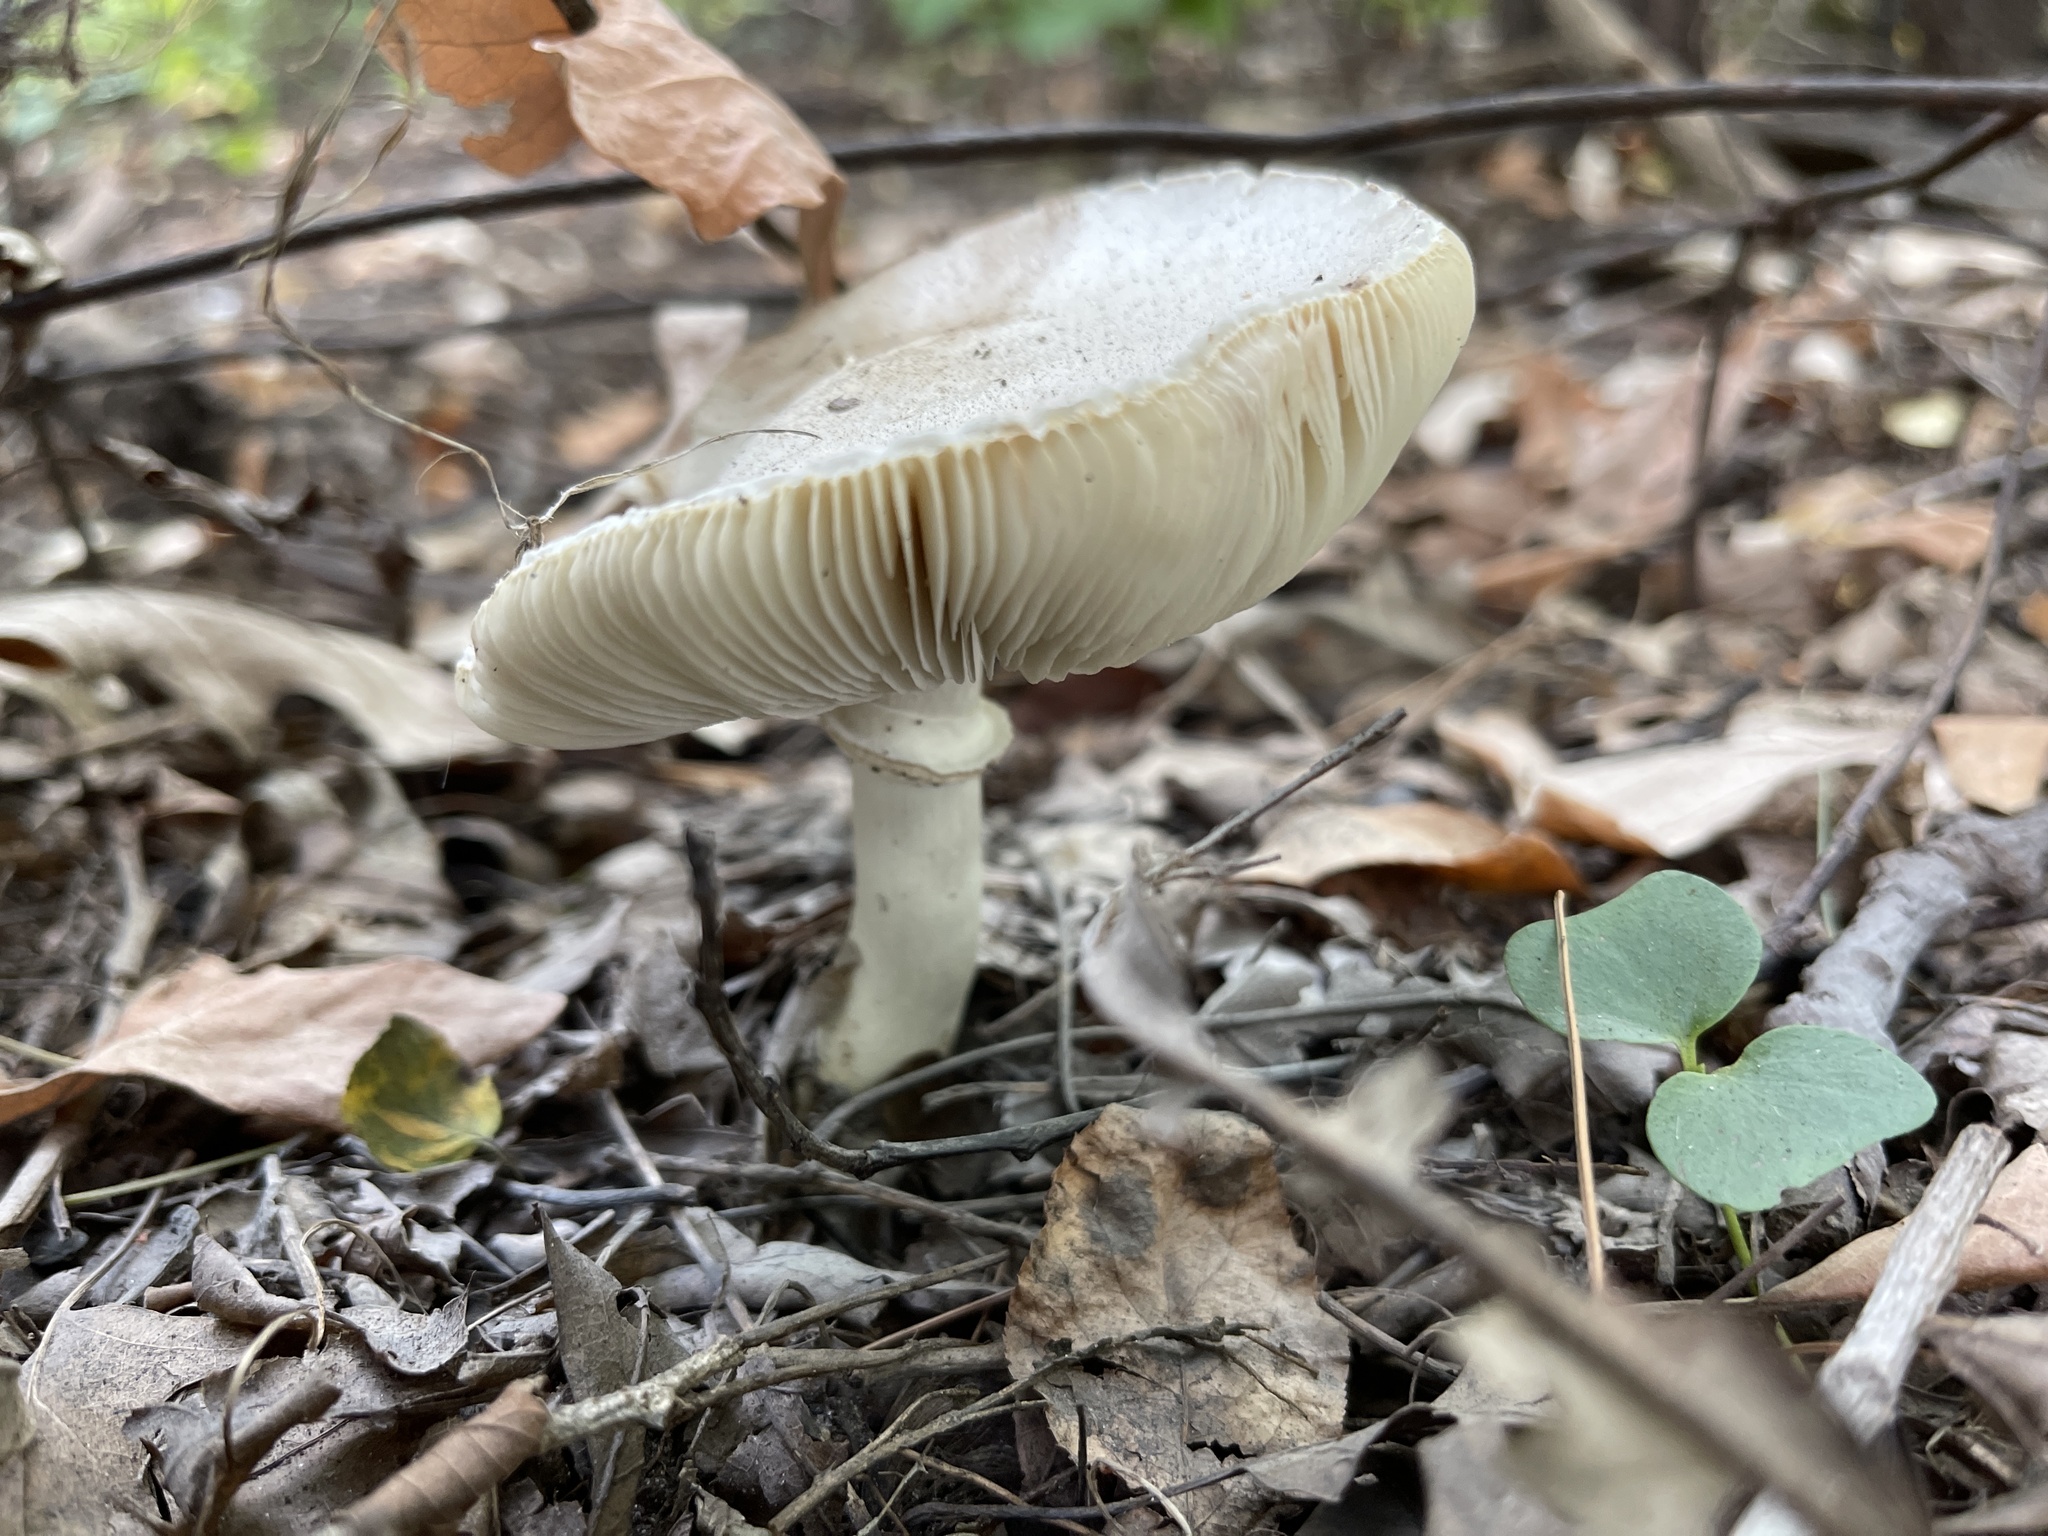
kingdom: Fungi
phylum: Basidiomycota
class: Agaricomycetes
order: Agaricales
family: Agaricaceae
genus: Leucoagaricus
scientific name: Leucoagaricus leucothites
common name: White dapperling
